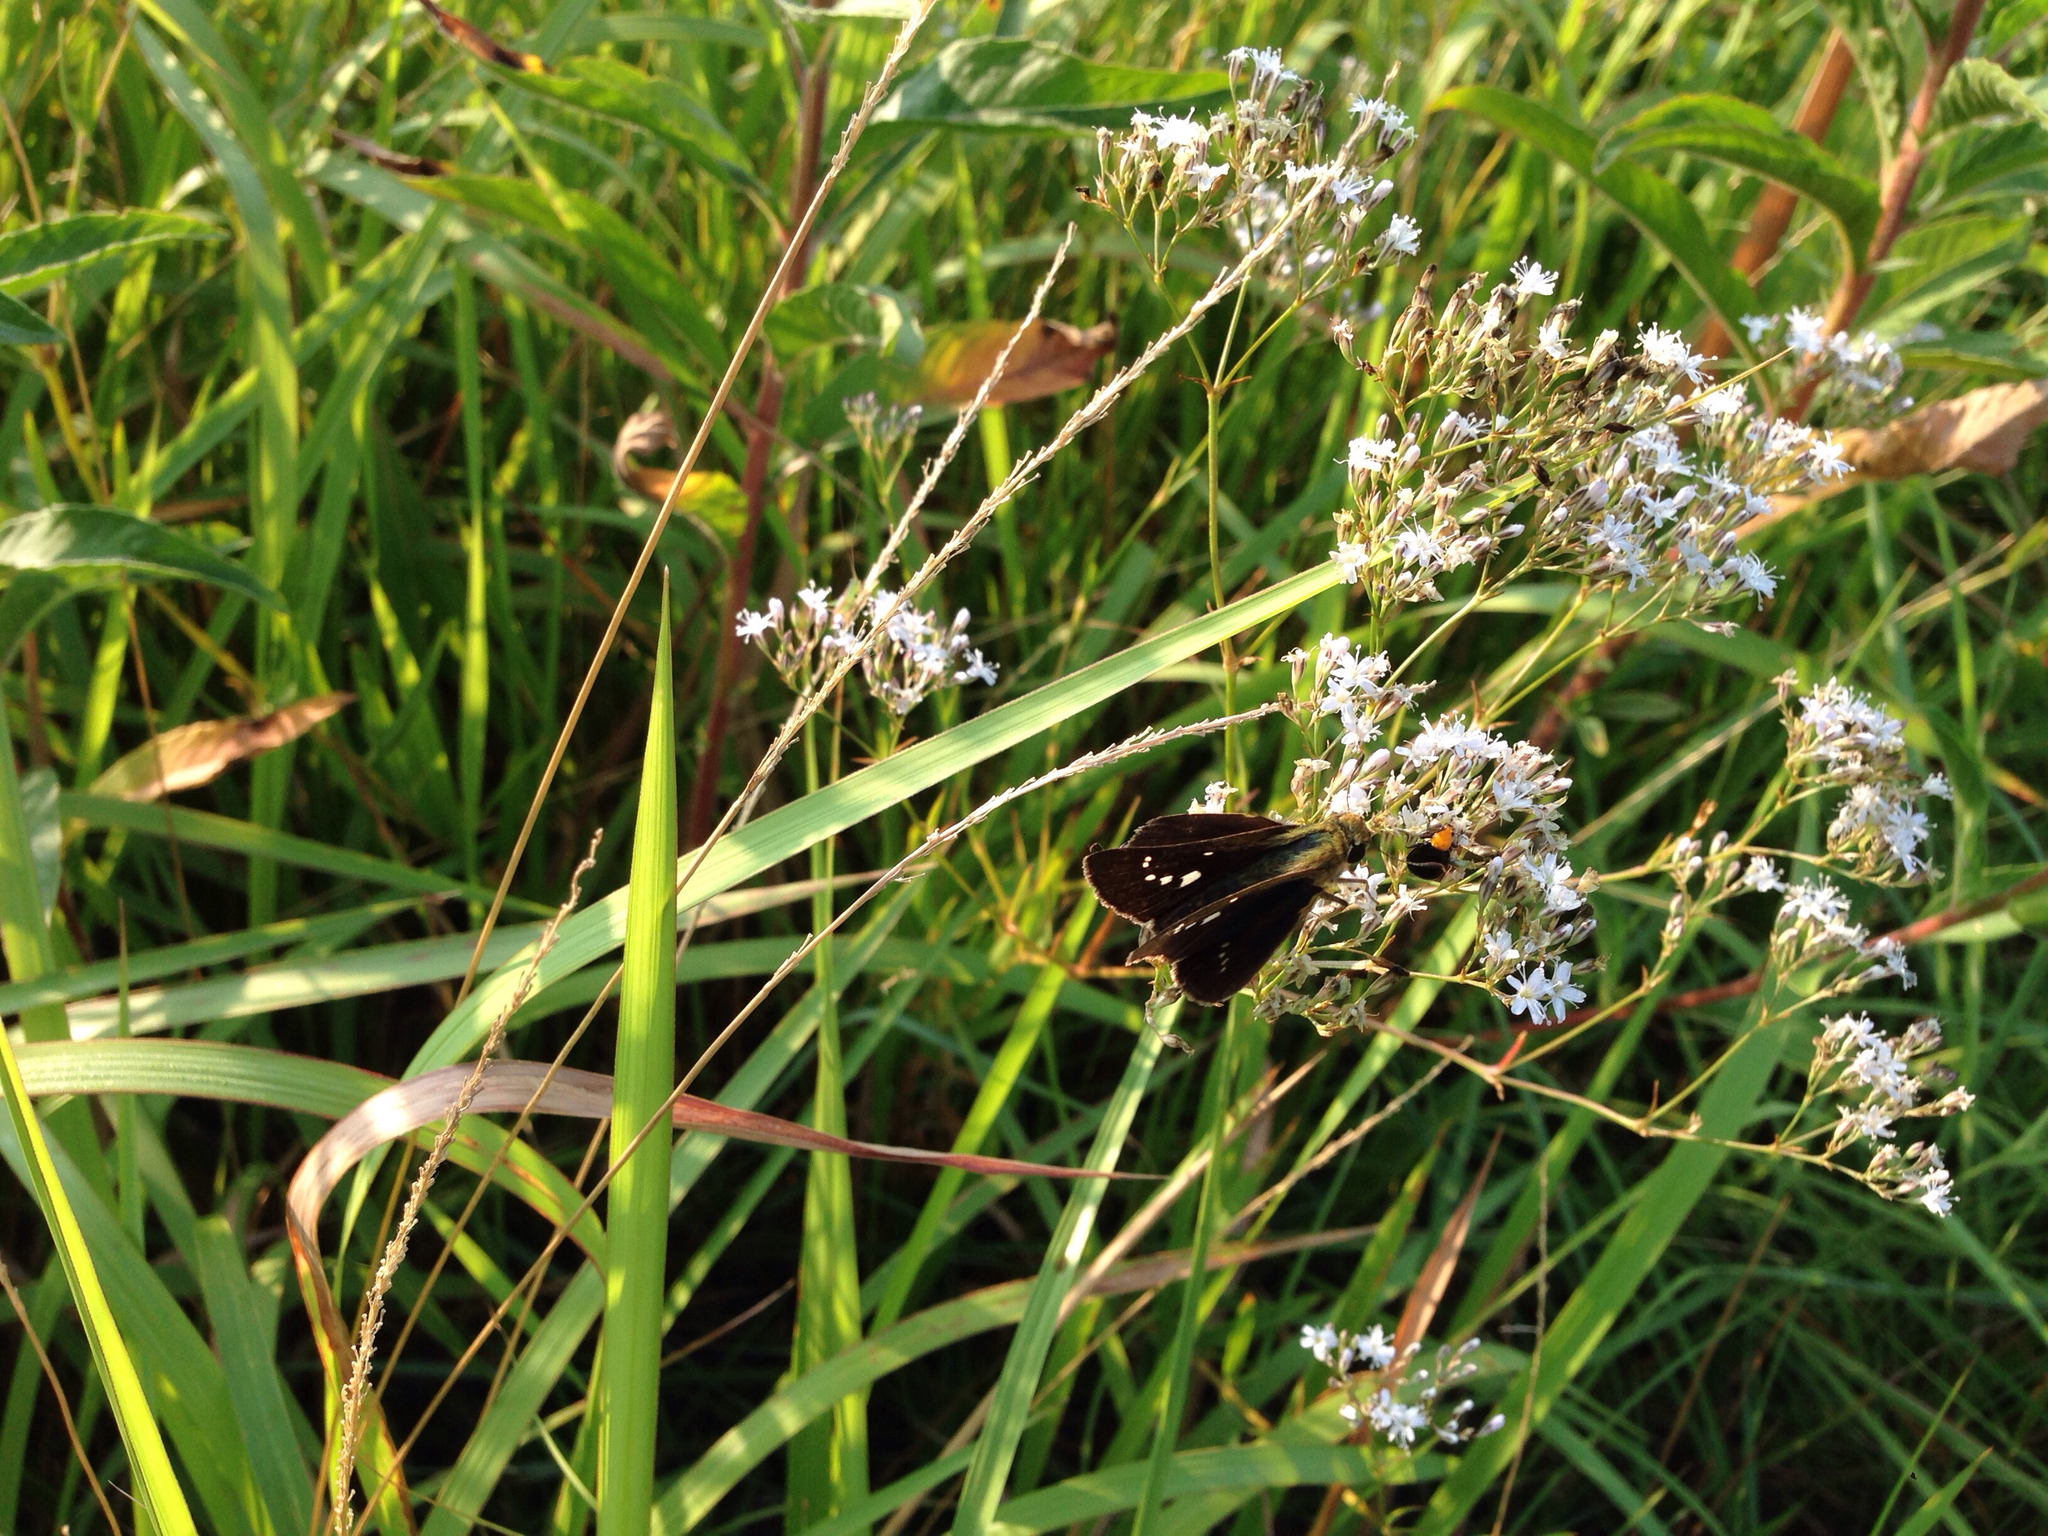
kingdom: Animalia
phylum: Arthropoda
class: Insecta
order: Lepidoptera
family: Hesperiidae
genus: Parnara
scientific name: Parnara guttatus
